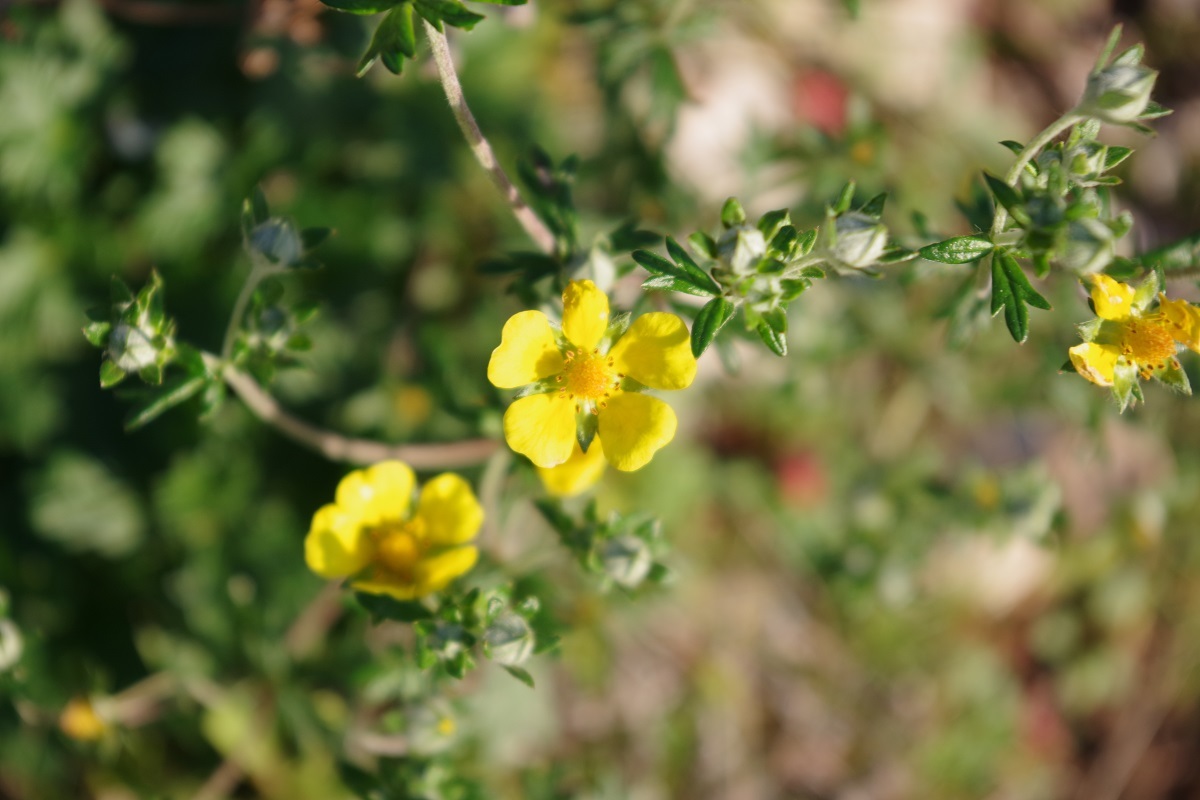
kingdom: Plantae
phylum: Tracheophyta
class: Magnoliopsida
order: Rosales
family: Rosaceae
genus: Potentilla
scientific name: Potentilla argentea
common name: Hoary cinquefoil
